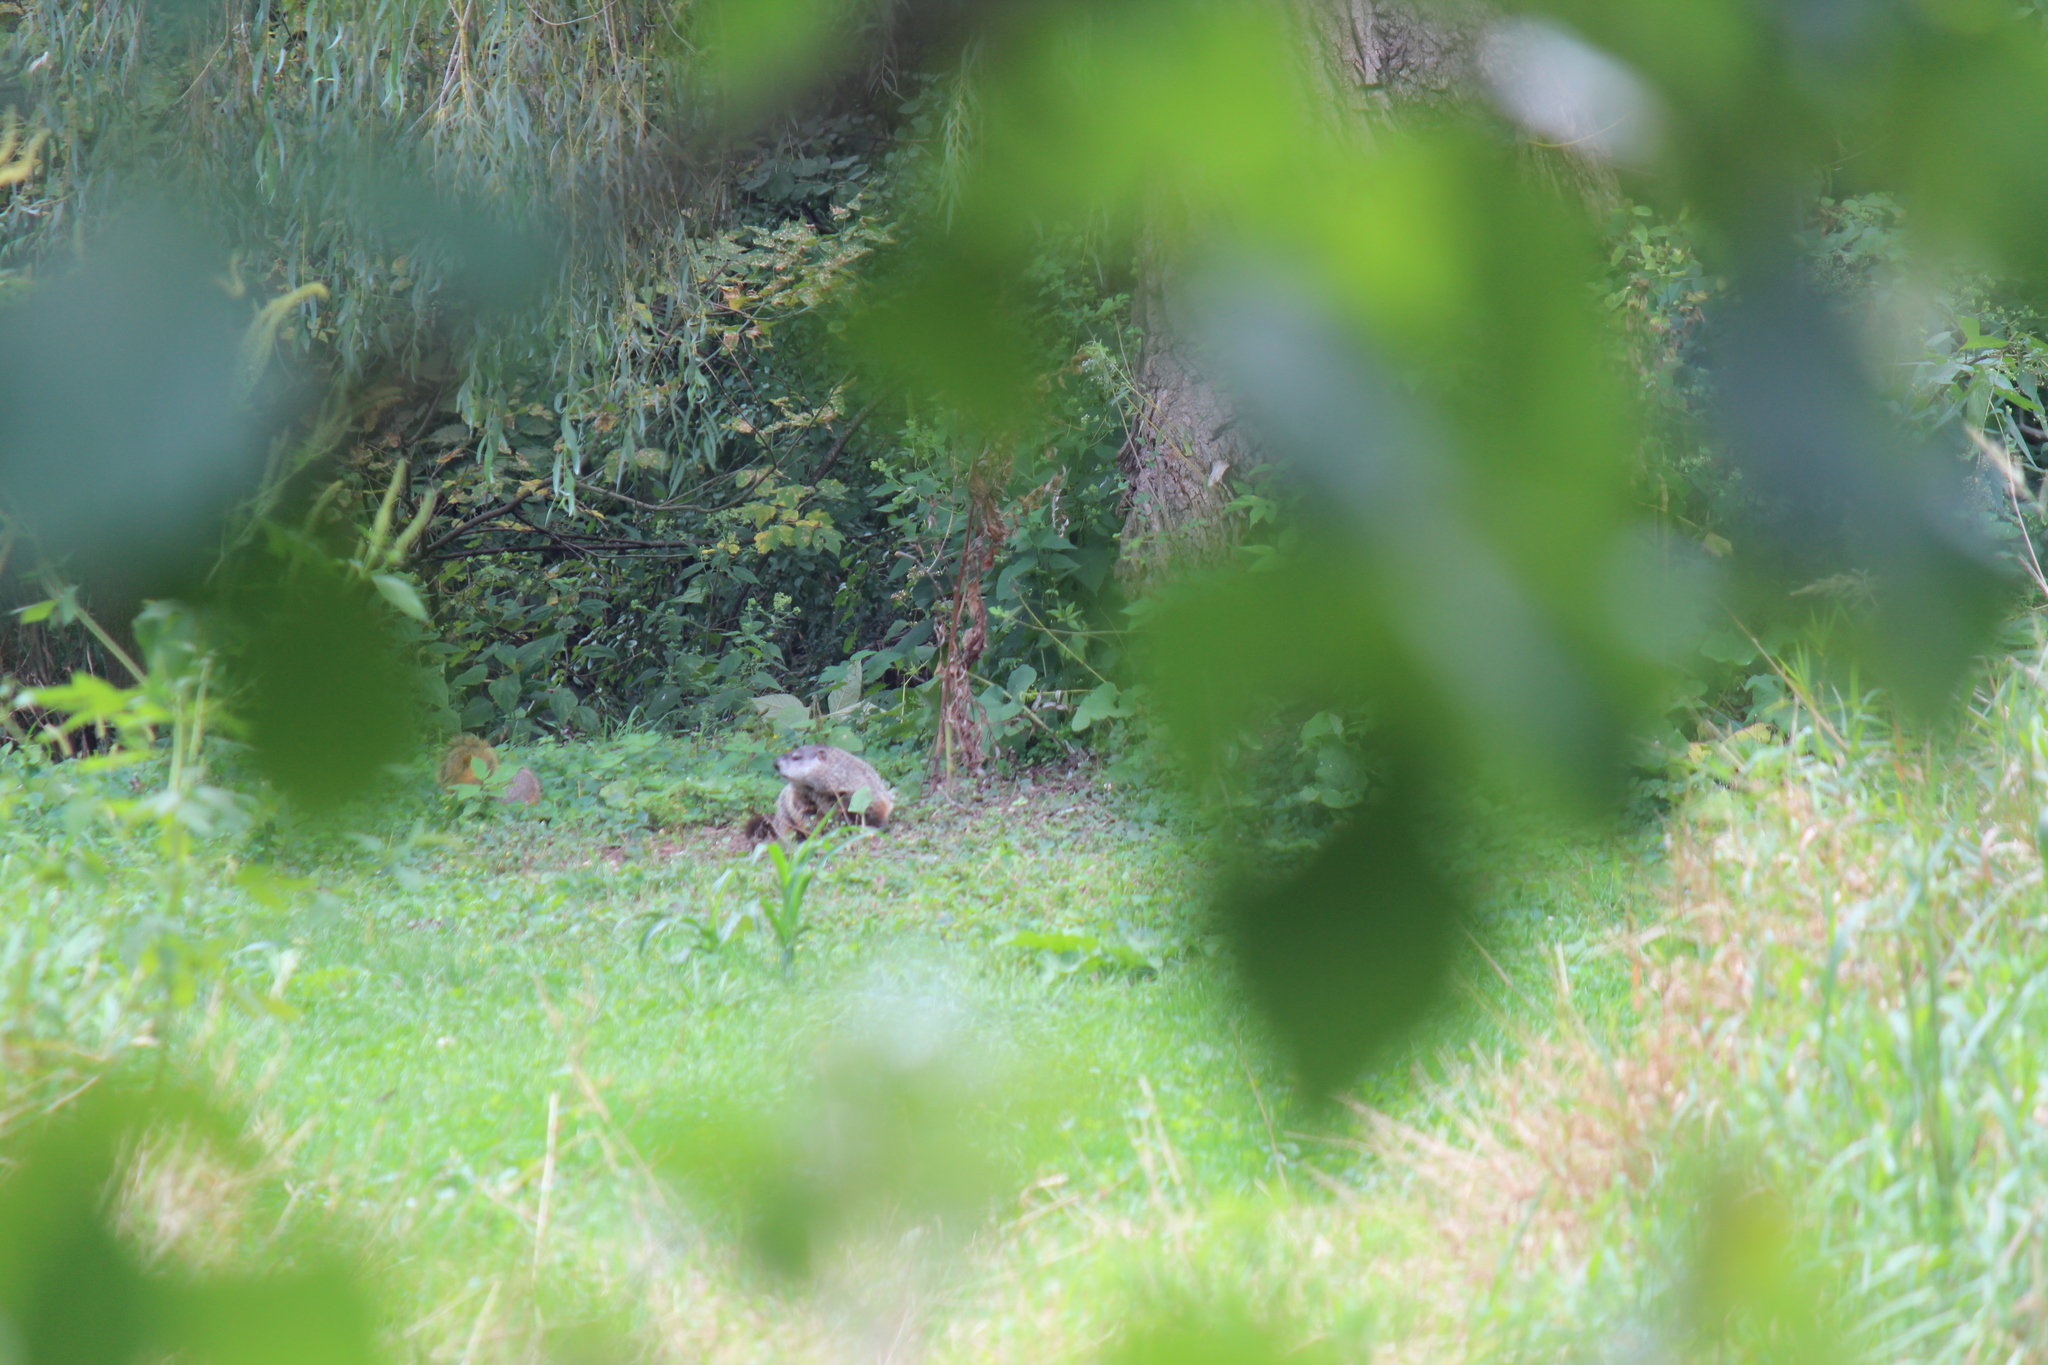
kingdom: Animalia
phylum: Chordata
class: Mammalia
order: Rodentia
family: Sciuridae
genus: Marmota
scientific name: Marmota monax
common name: Groundhog
